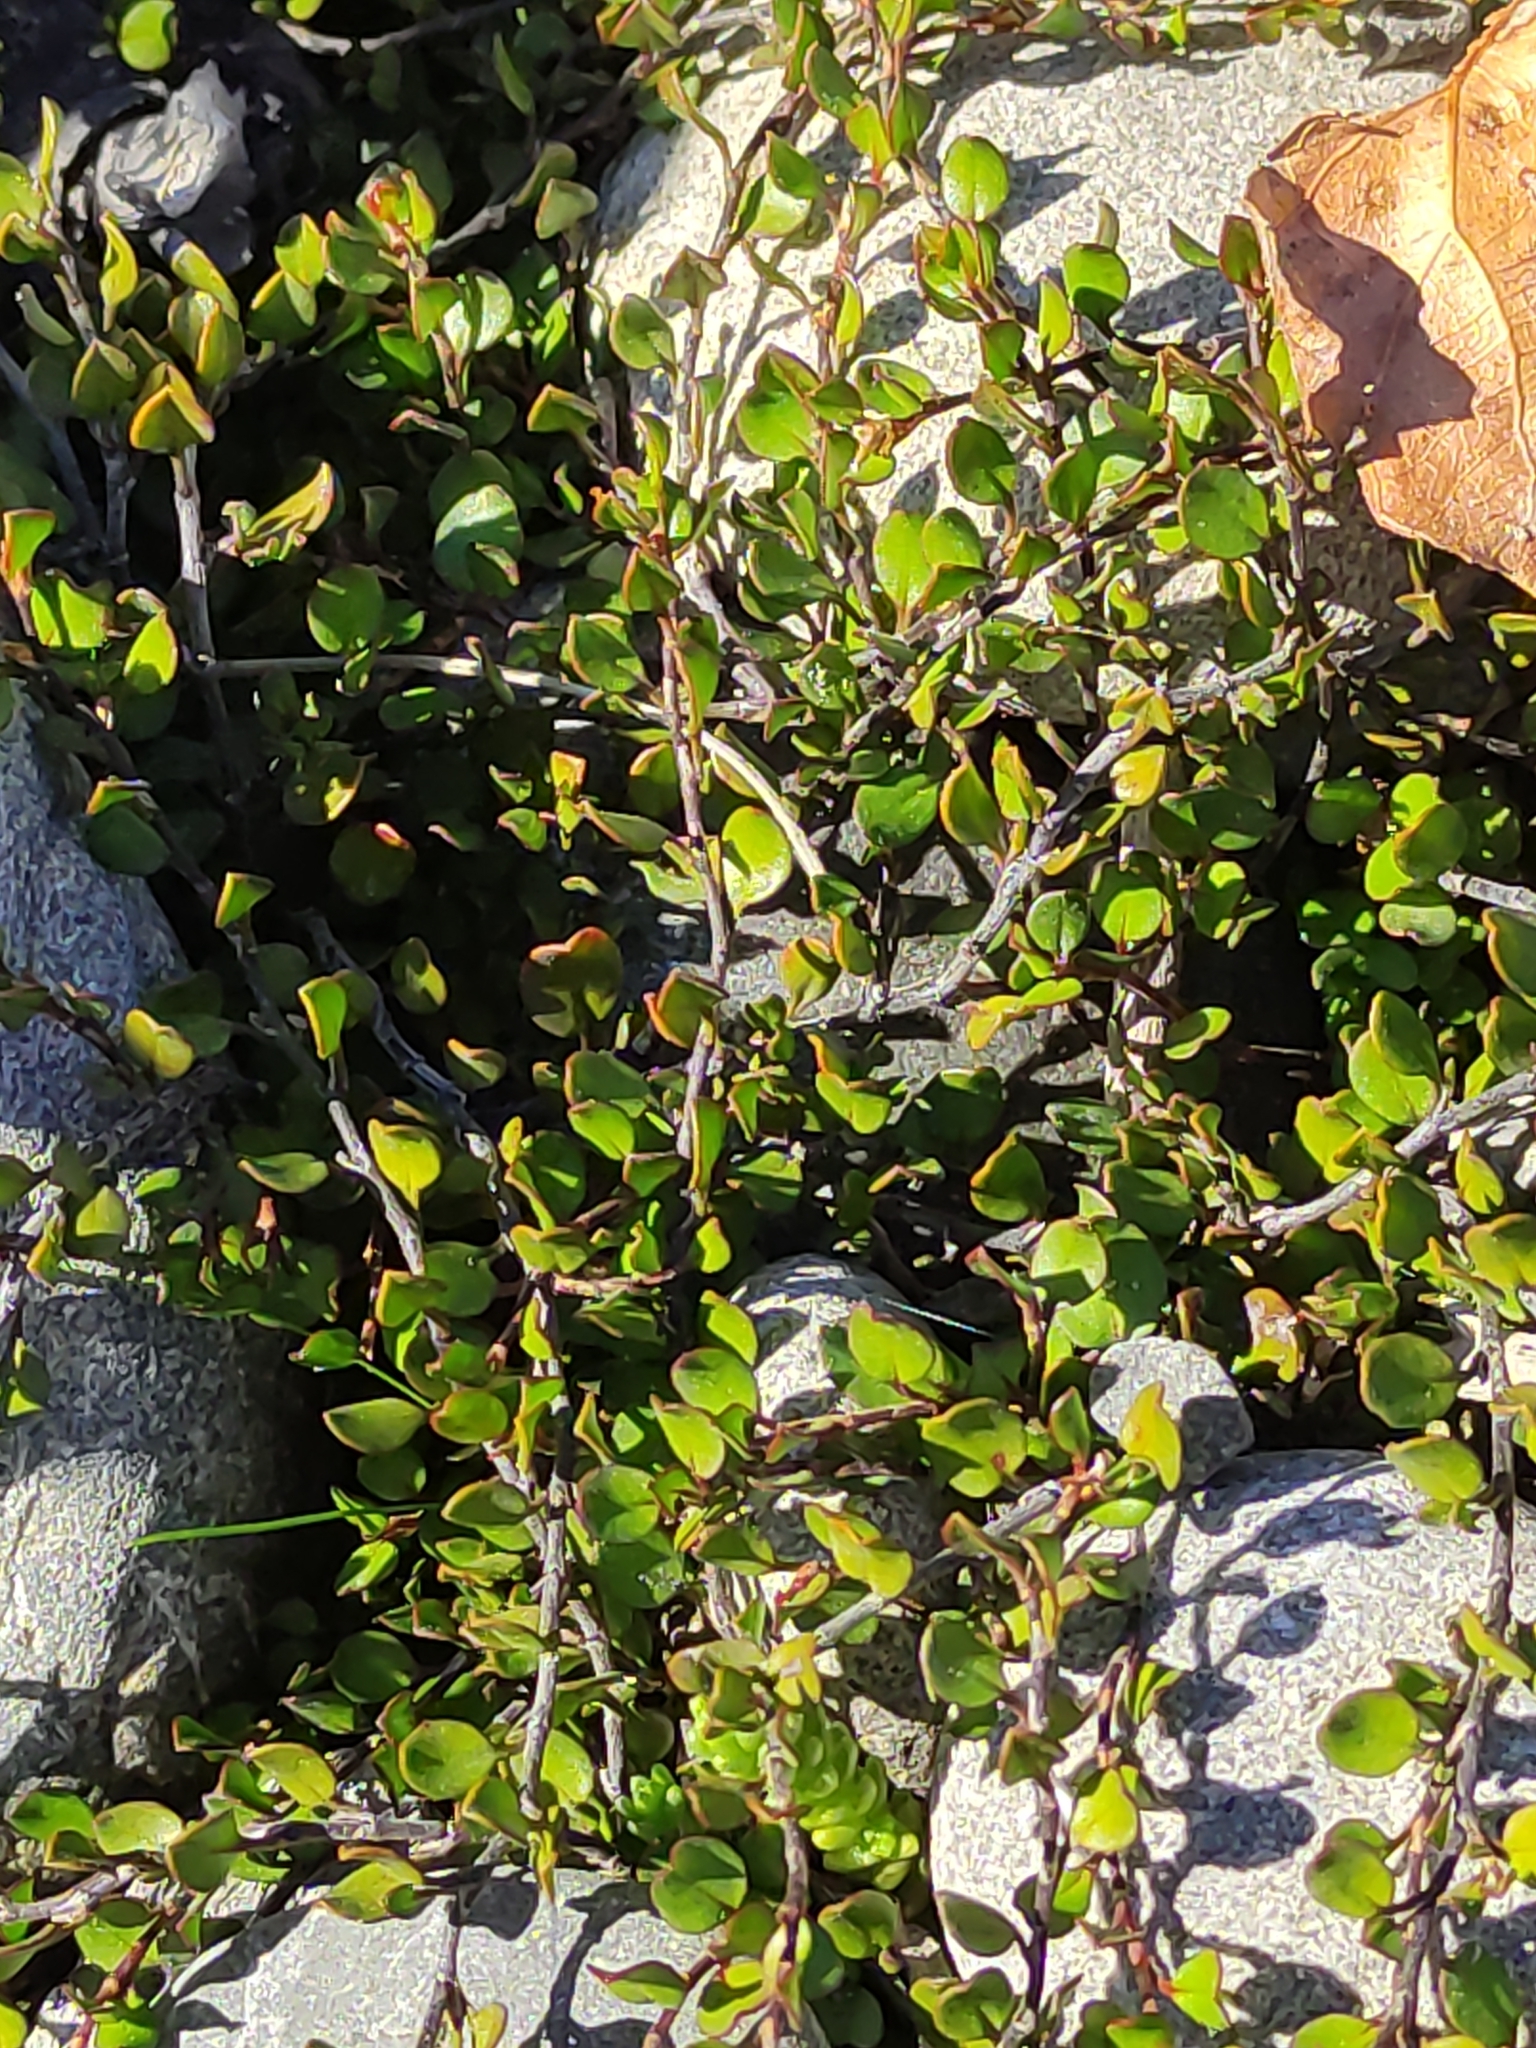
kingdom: Plantae
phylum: Tracheophyta
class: Magnoliopsida
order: Caryophyllales
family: Polygonaceae
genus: Muehlenbeckia
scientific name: Muehlenbeckia axillaris
